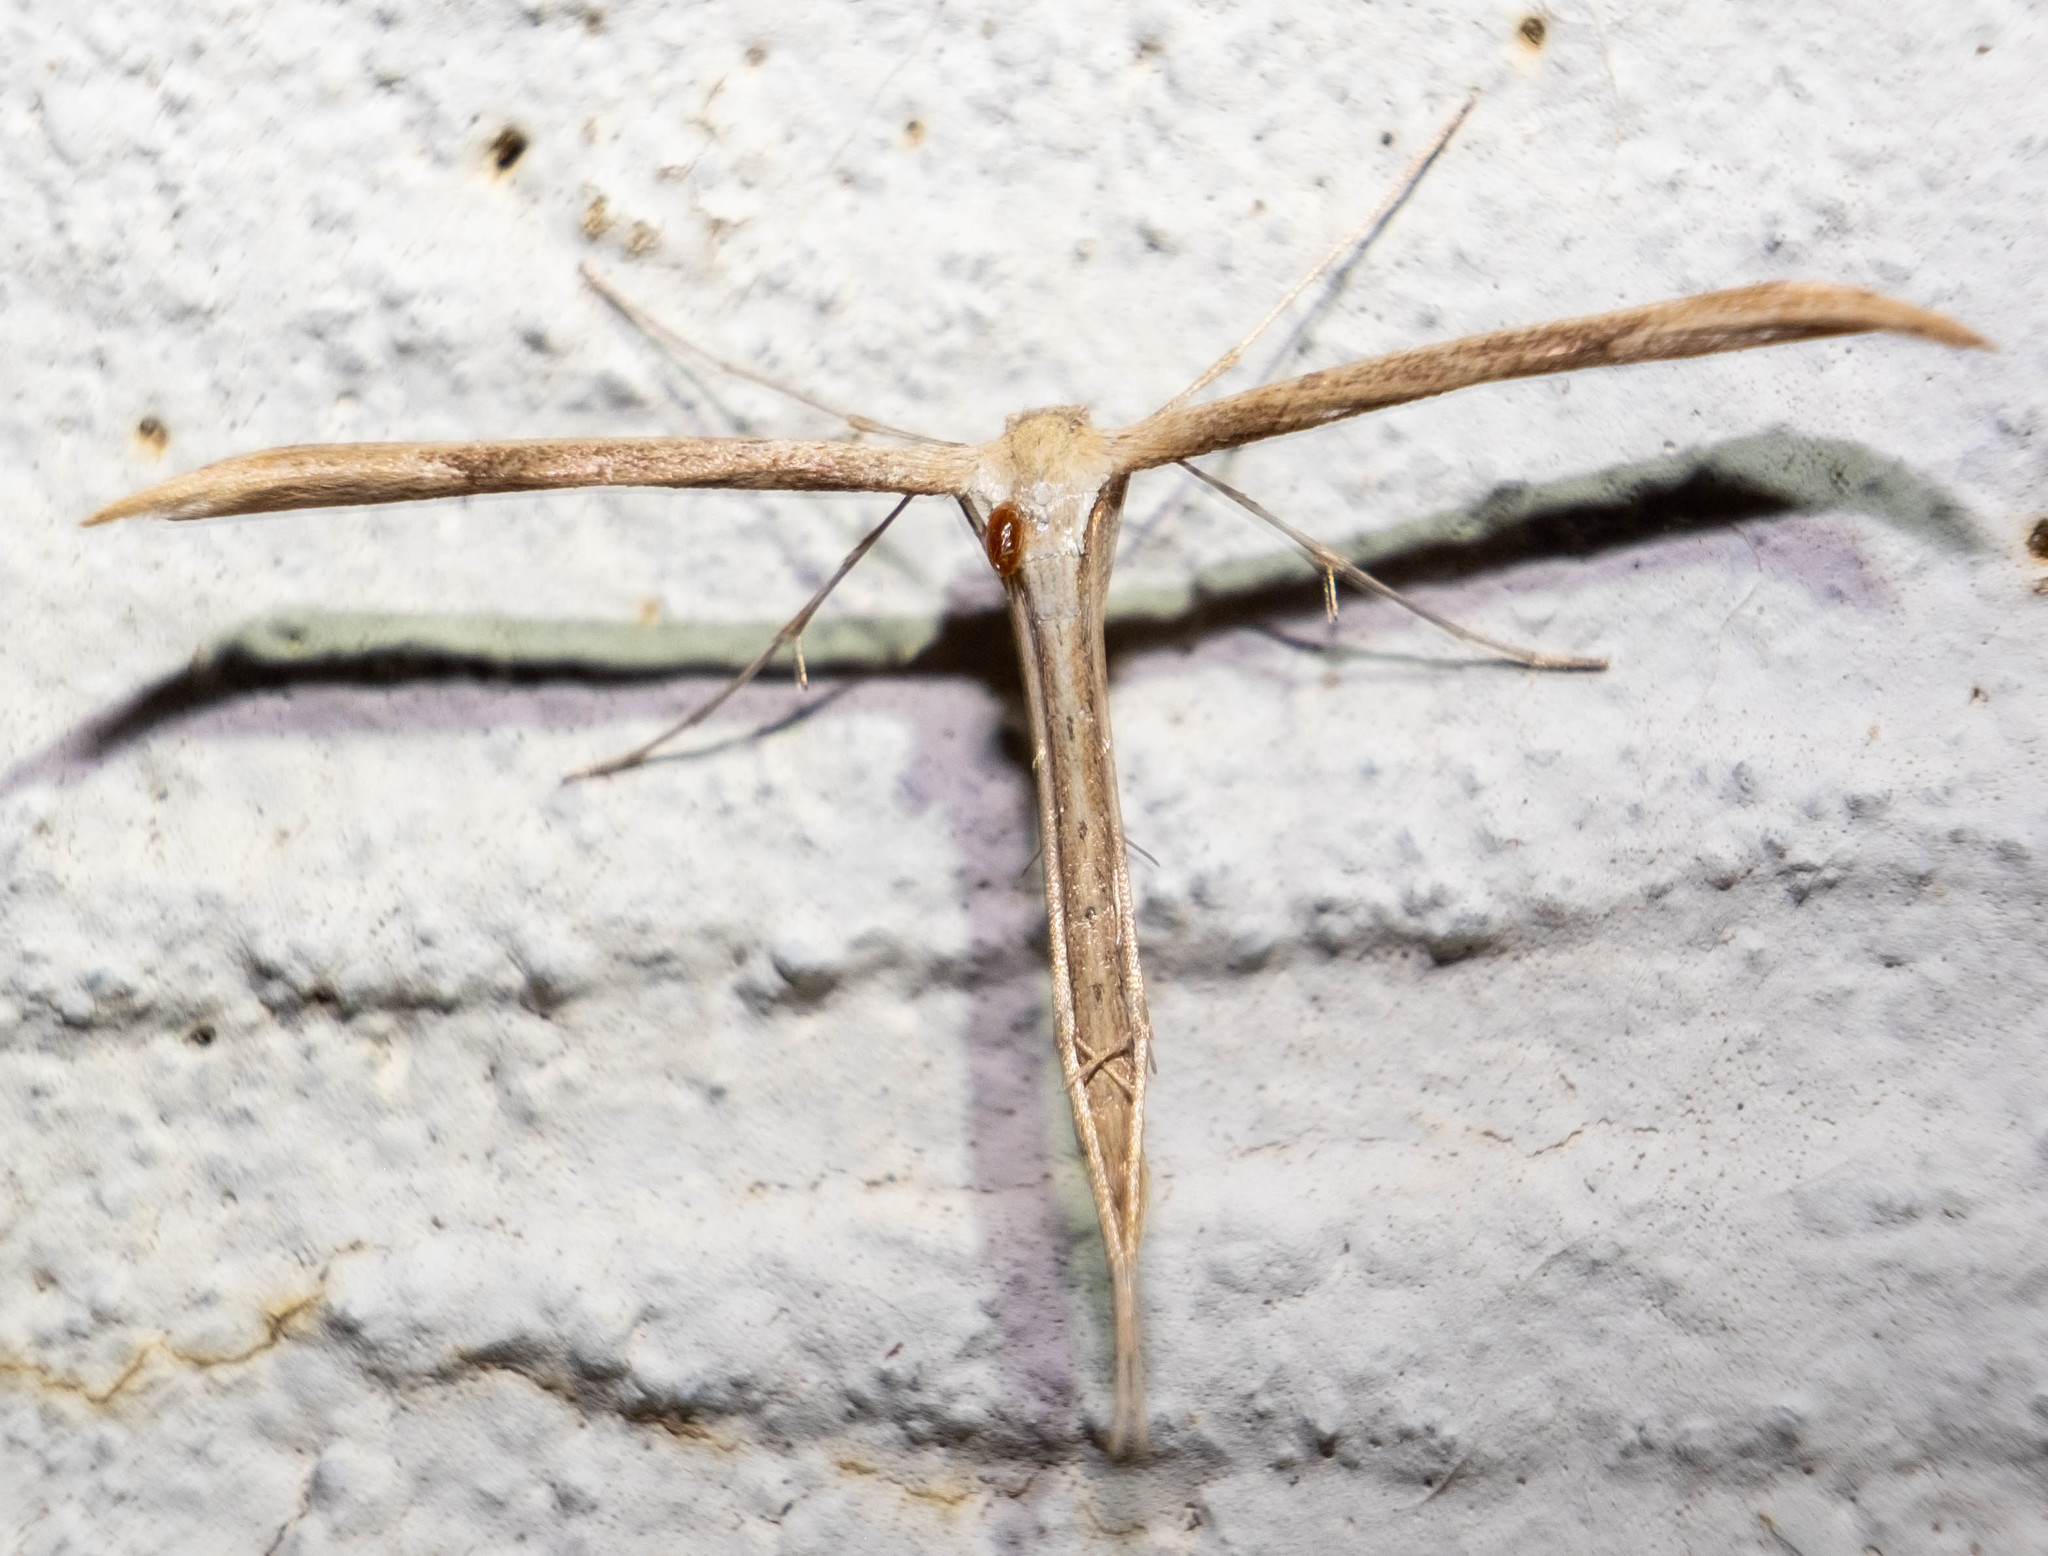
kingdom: Animalia
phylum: Arthropoda
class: Insecta
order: Lepidoptera
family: Pterophoridae
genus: Emmelina
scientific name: Emmelina monodactyla
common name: Common plume
